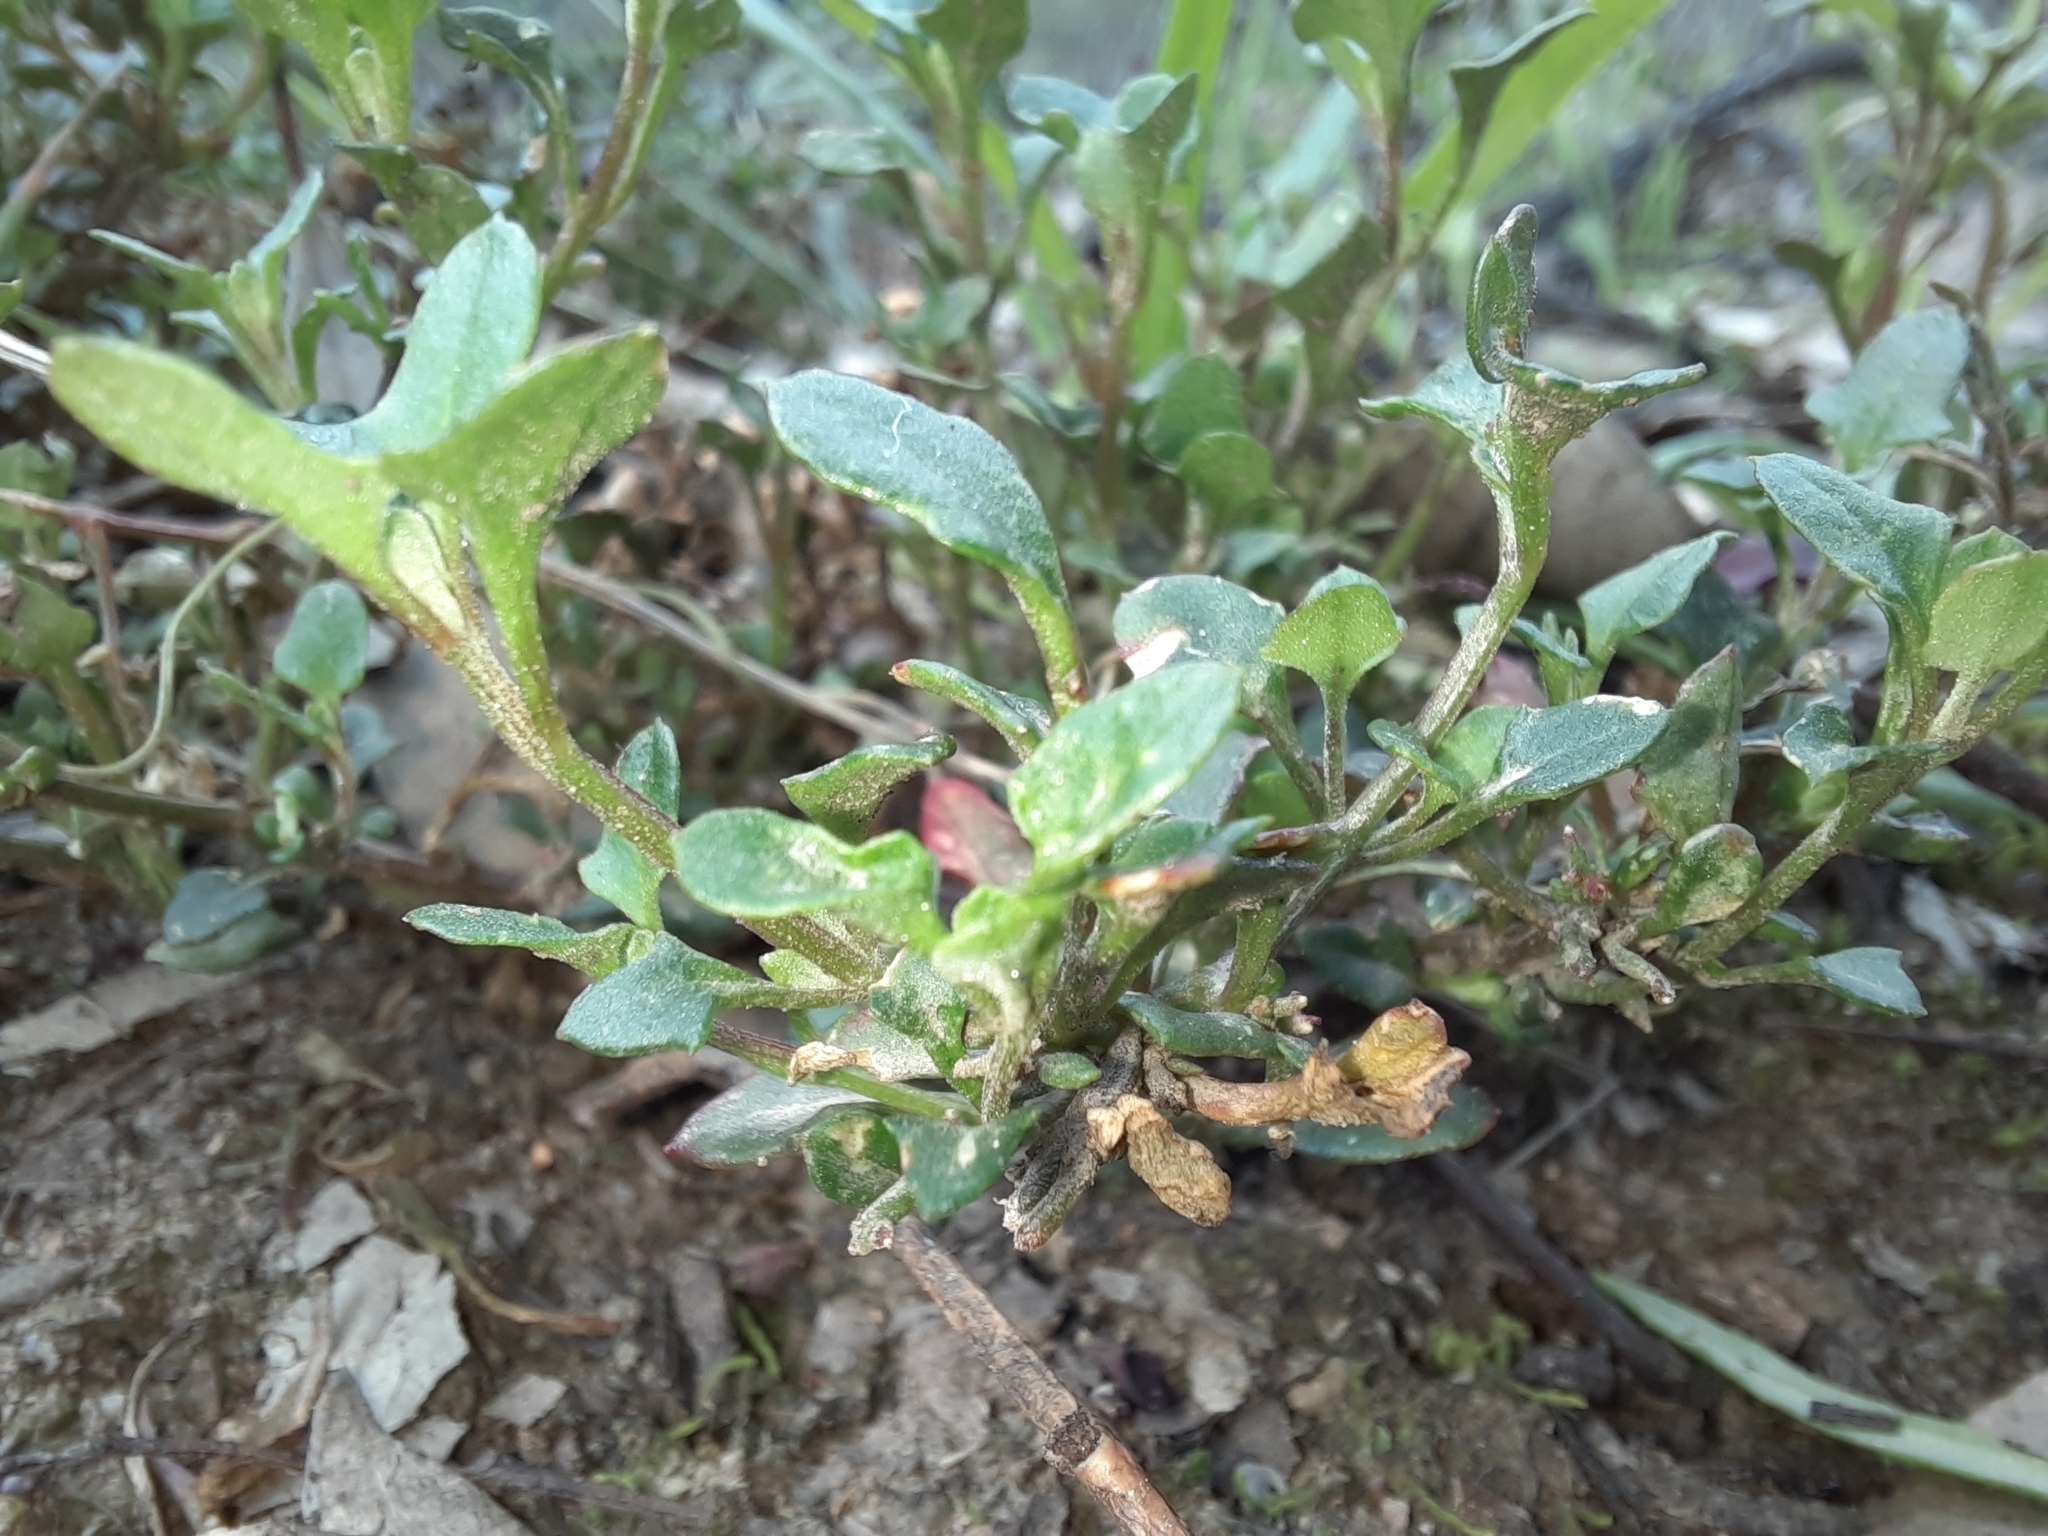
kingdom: Plantae
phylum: Tracheophyta
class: Magnoliopsida
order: Caryophyllales
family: Amaranthaceae
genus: Chenopodium
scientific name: Chenopodium robertianum
